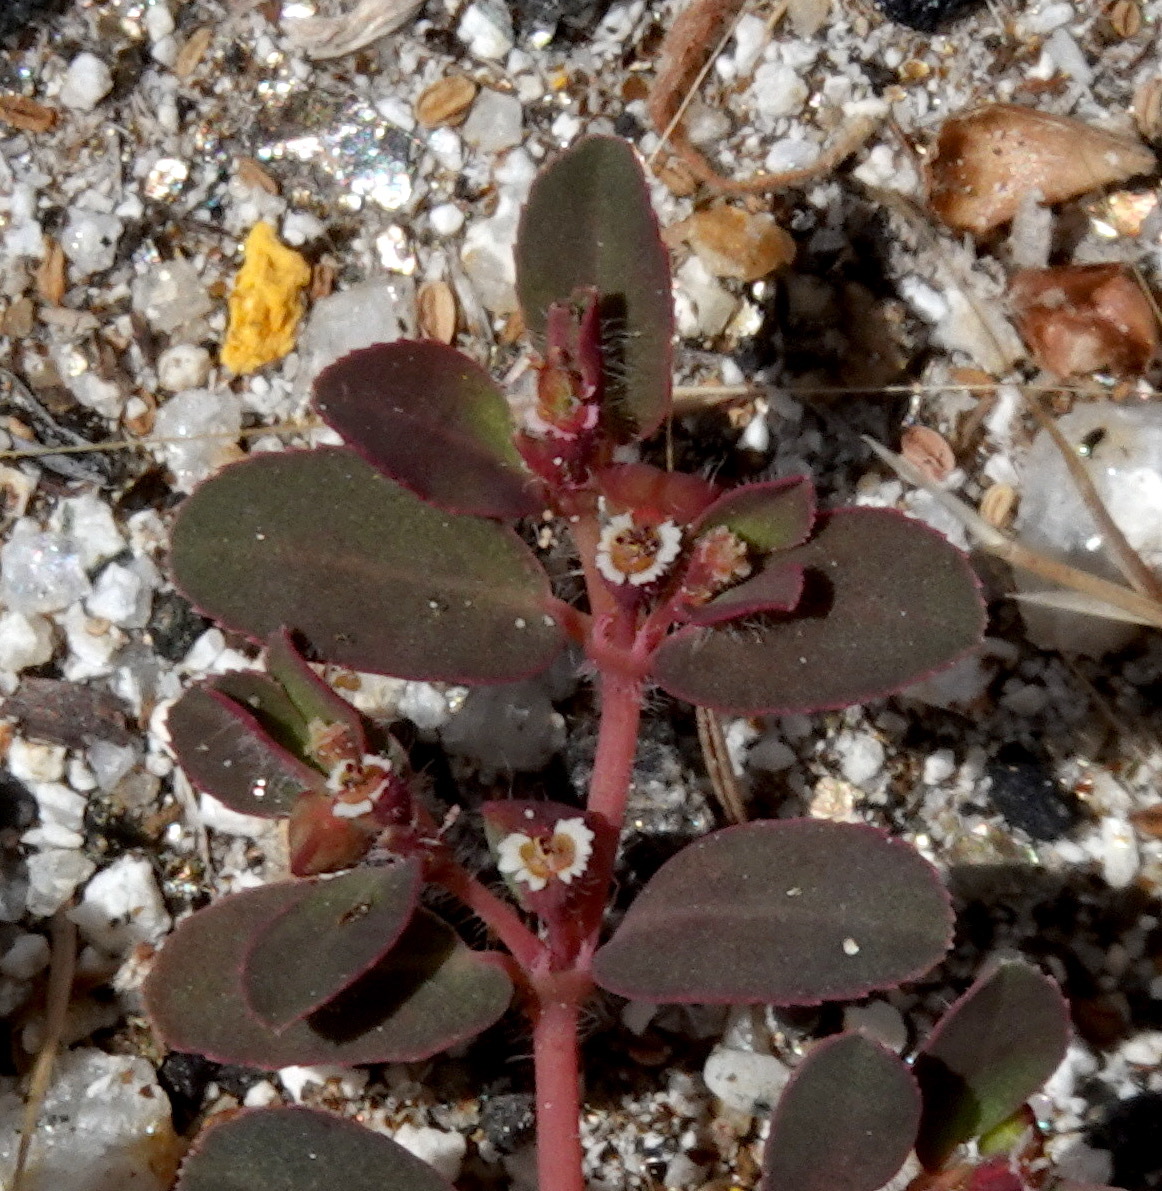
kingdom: Plantae
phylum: Tracheophyta
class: Magnoliopsida
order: Malpighiales
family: Euphorbiaceae
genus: Euphorbia
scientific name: Euphorbia serpillifolia
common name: Thyme-leaf spurge
